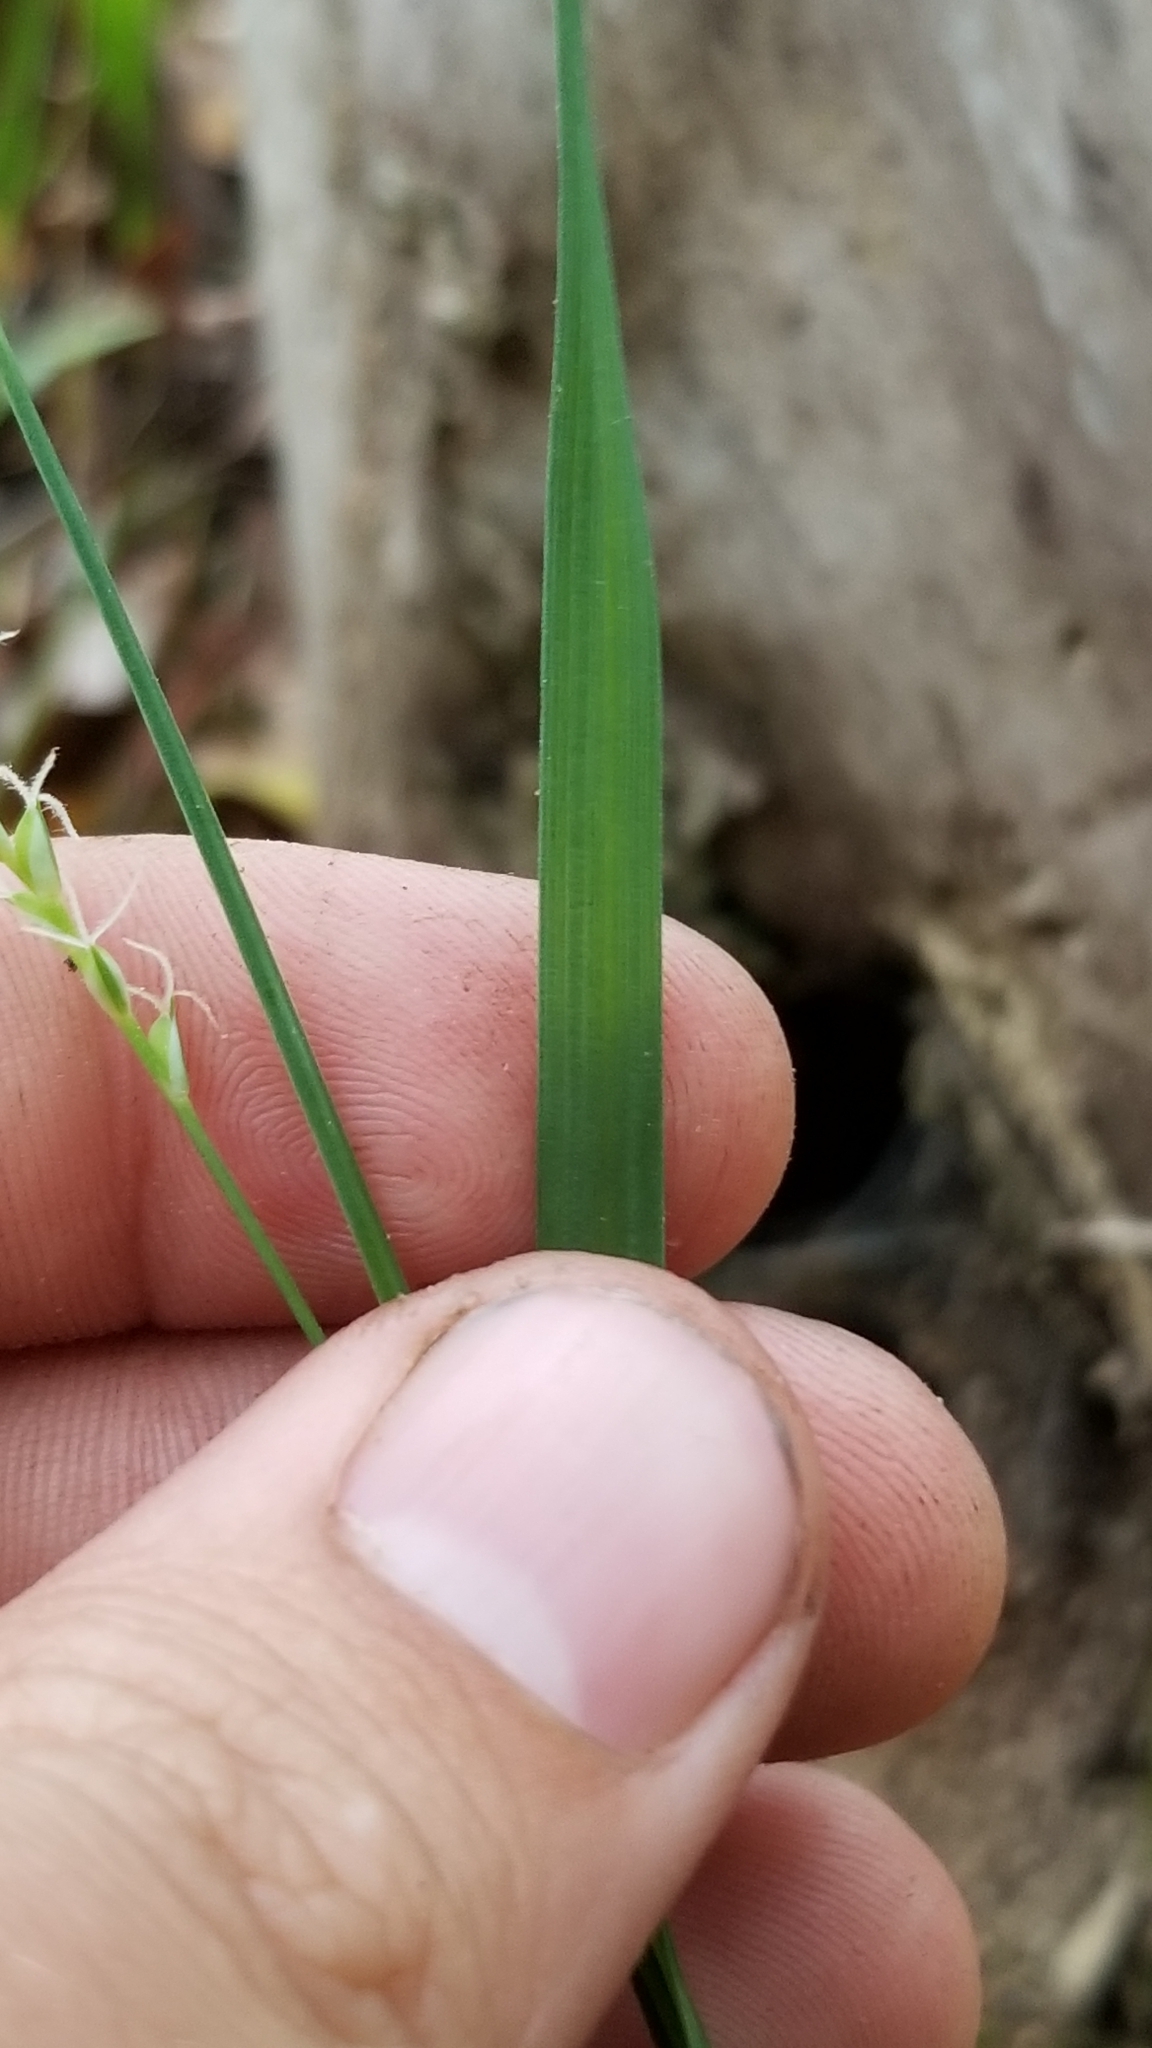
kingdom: Plantae
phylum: Tracheophyta
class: Liliopsida
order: Poales
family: Cyperaceae
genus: Carex
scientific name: Carex striatula
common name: Lined sedge
